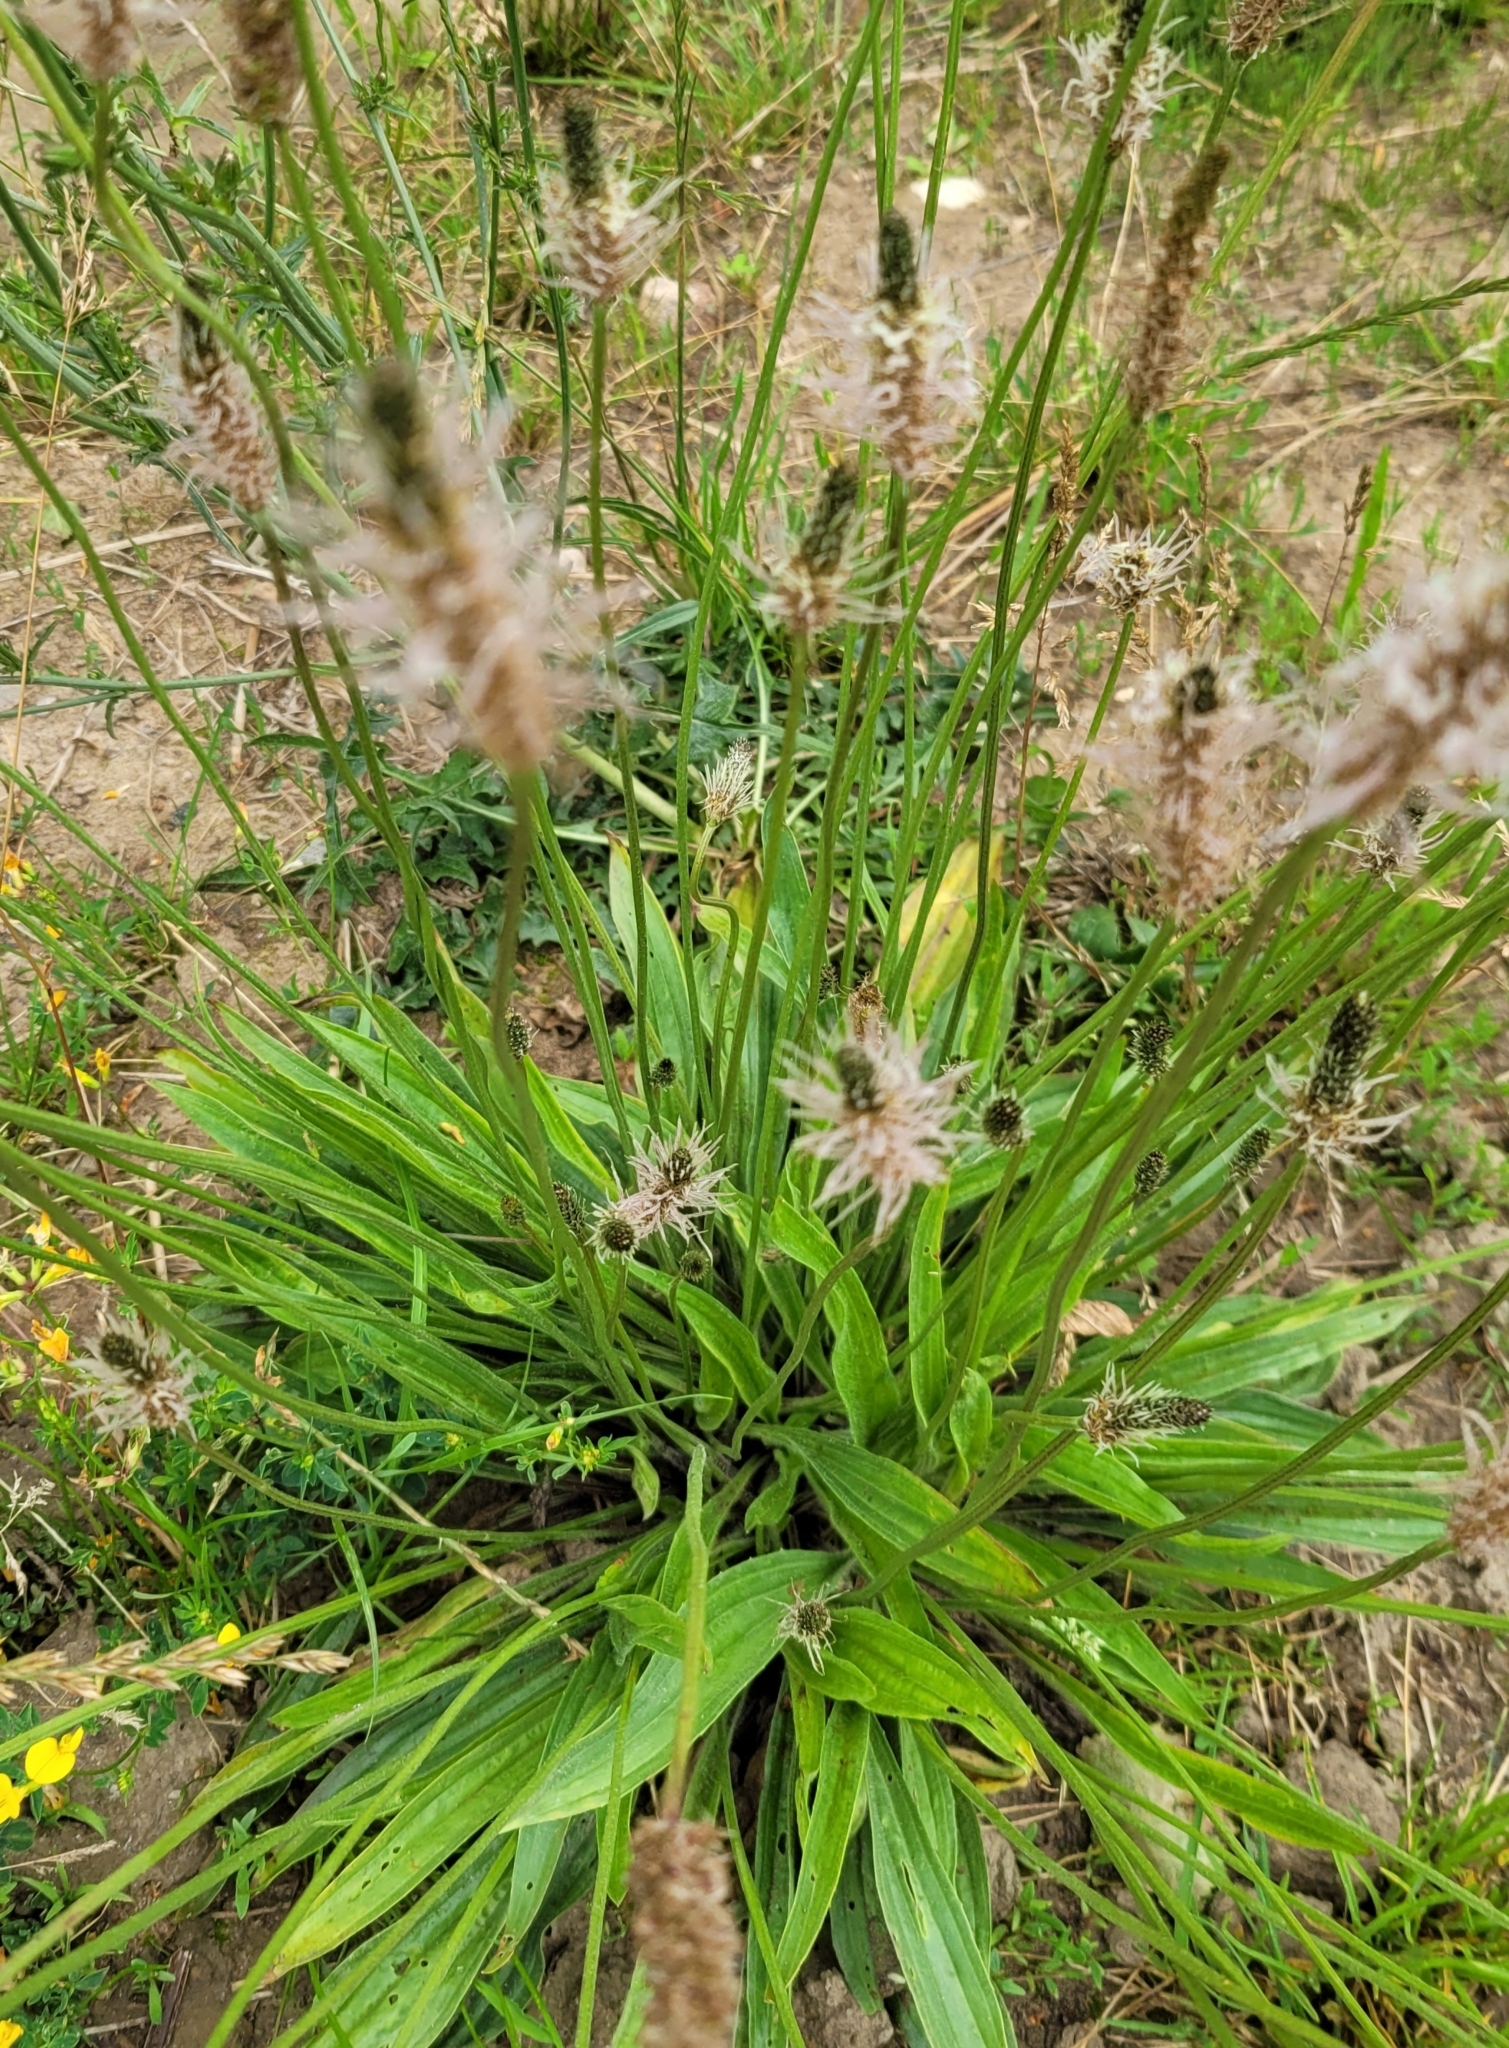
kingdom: Plantae
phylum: Tracheophyta
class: Magnoliopsida
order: Lamiales
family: Plantaginaceae
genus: Plantago
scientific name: Plantago lanceolata
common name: Ribwort plantain
